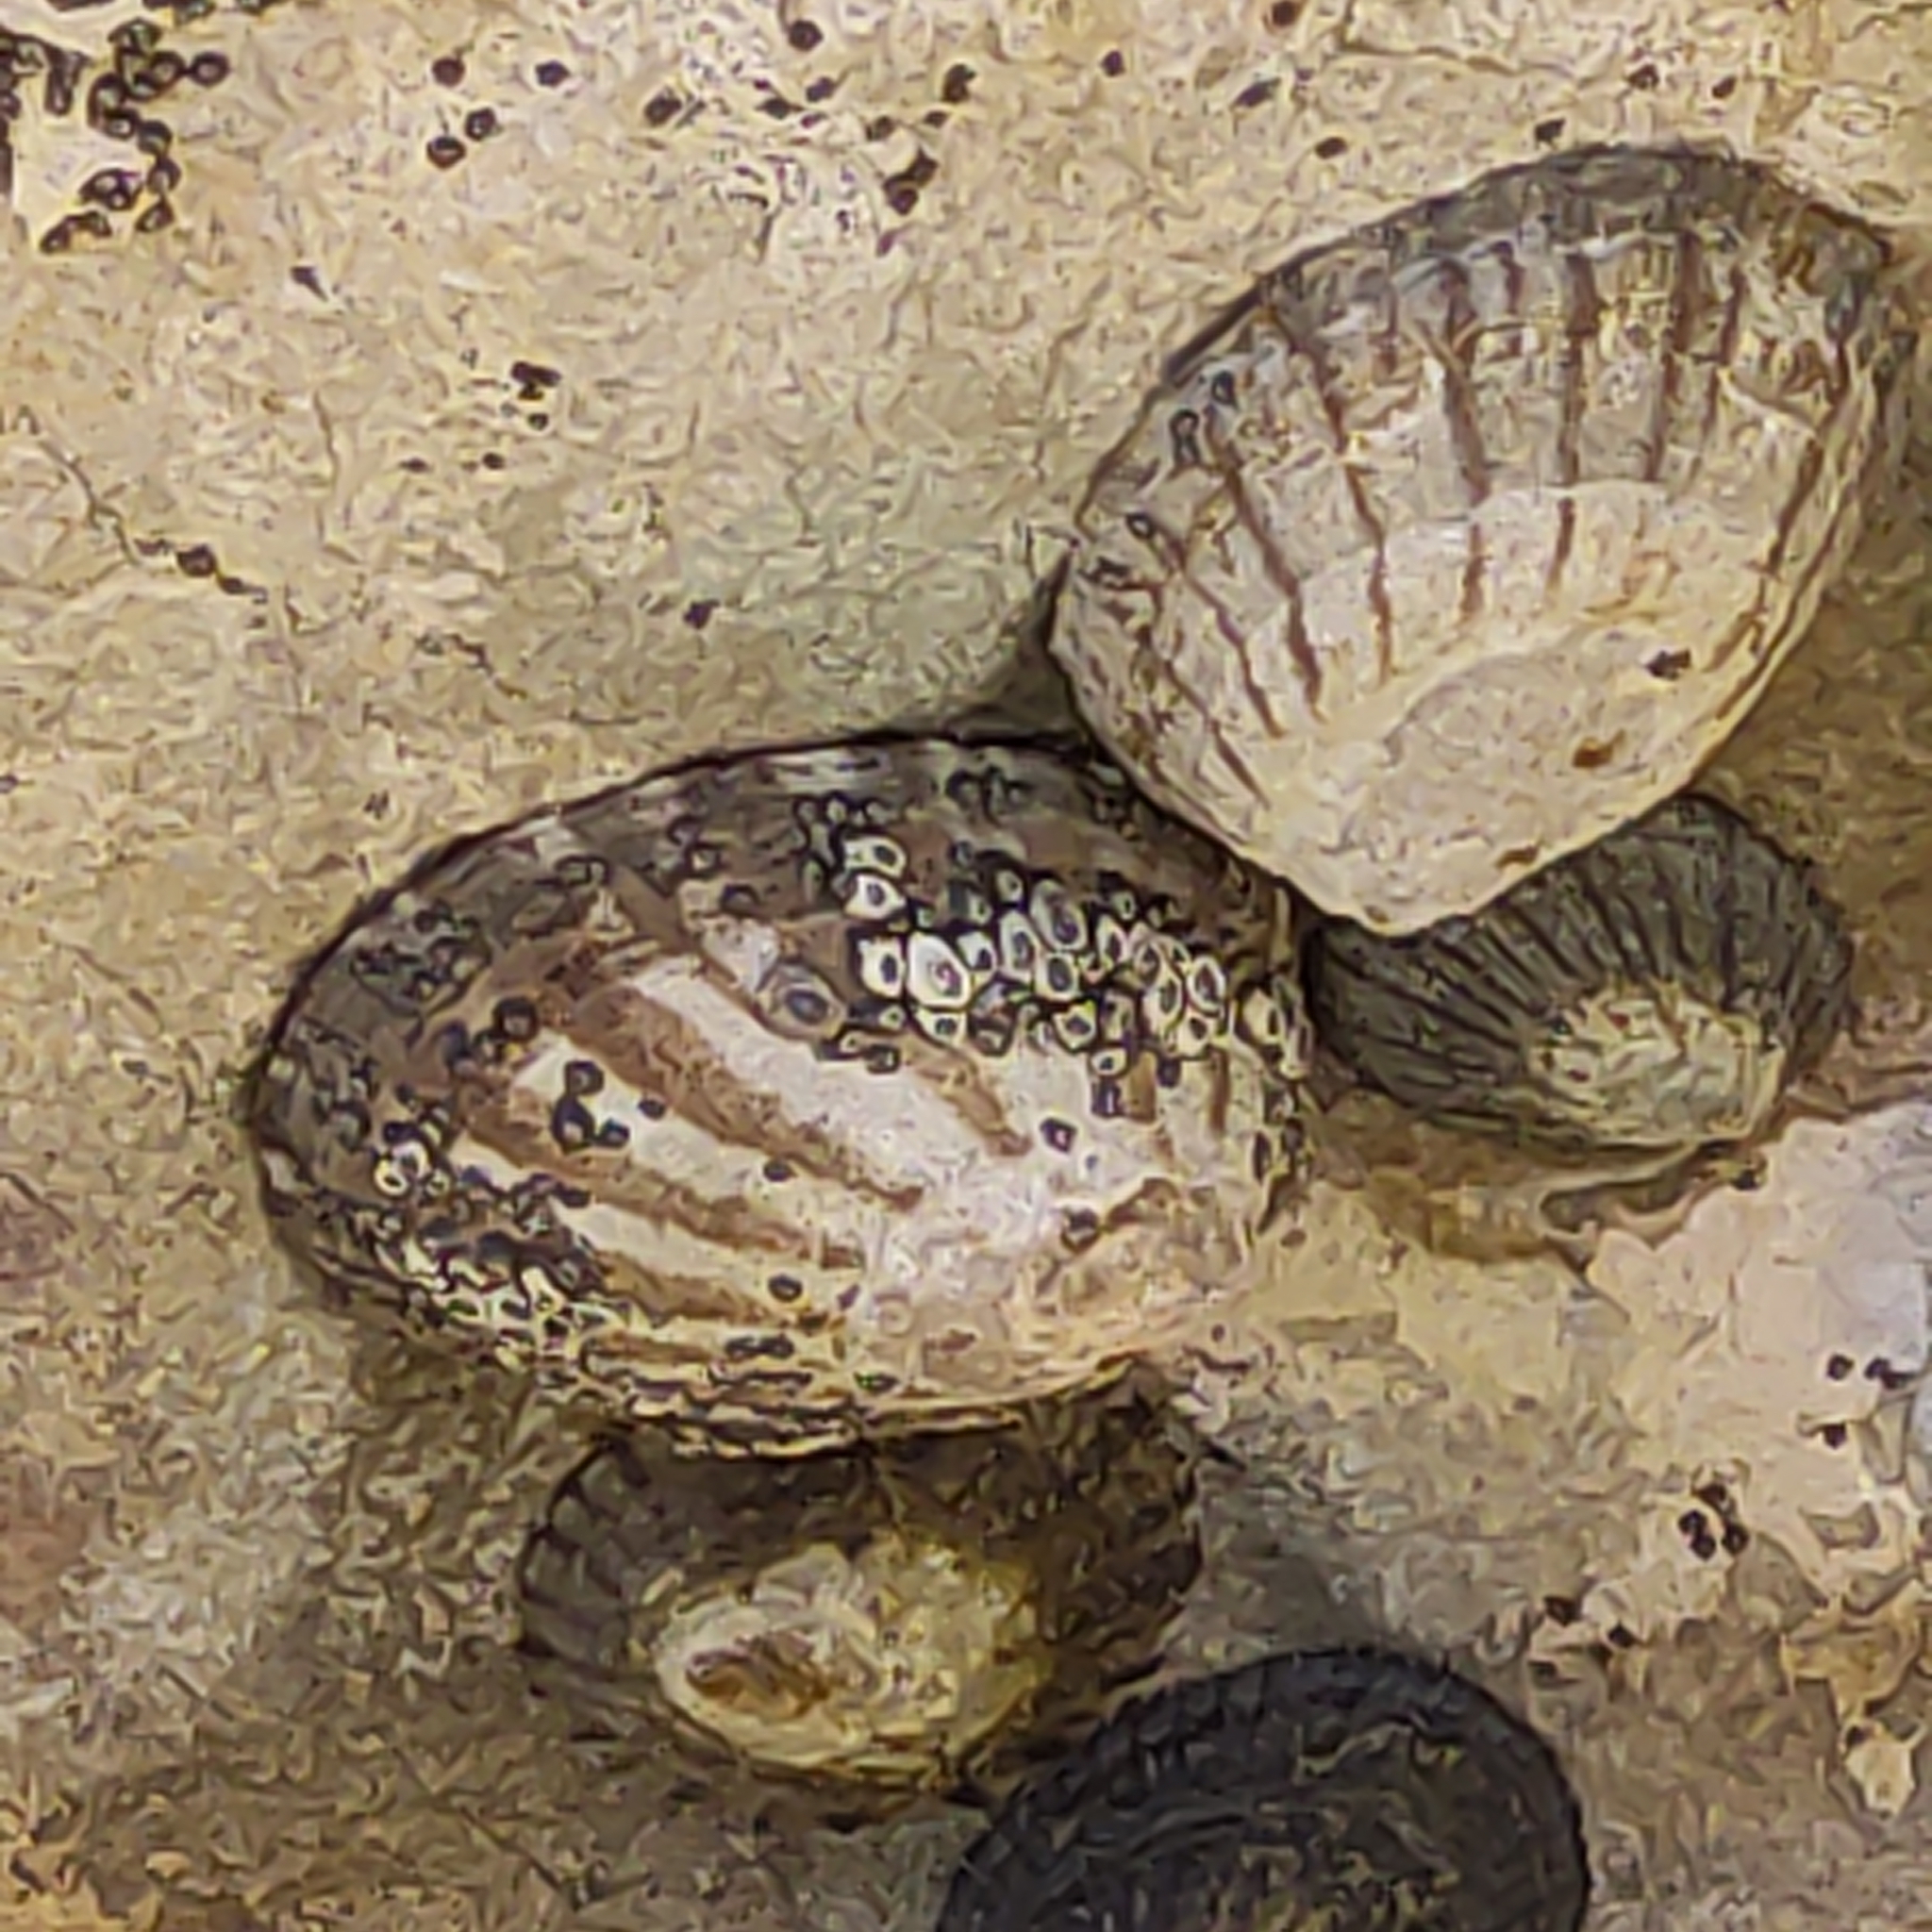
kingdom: Animalia
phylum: Mollusca
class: Gastropoda
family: Nacellidae
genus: Cellana
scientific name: Cellana strigilis
